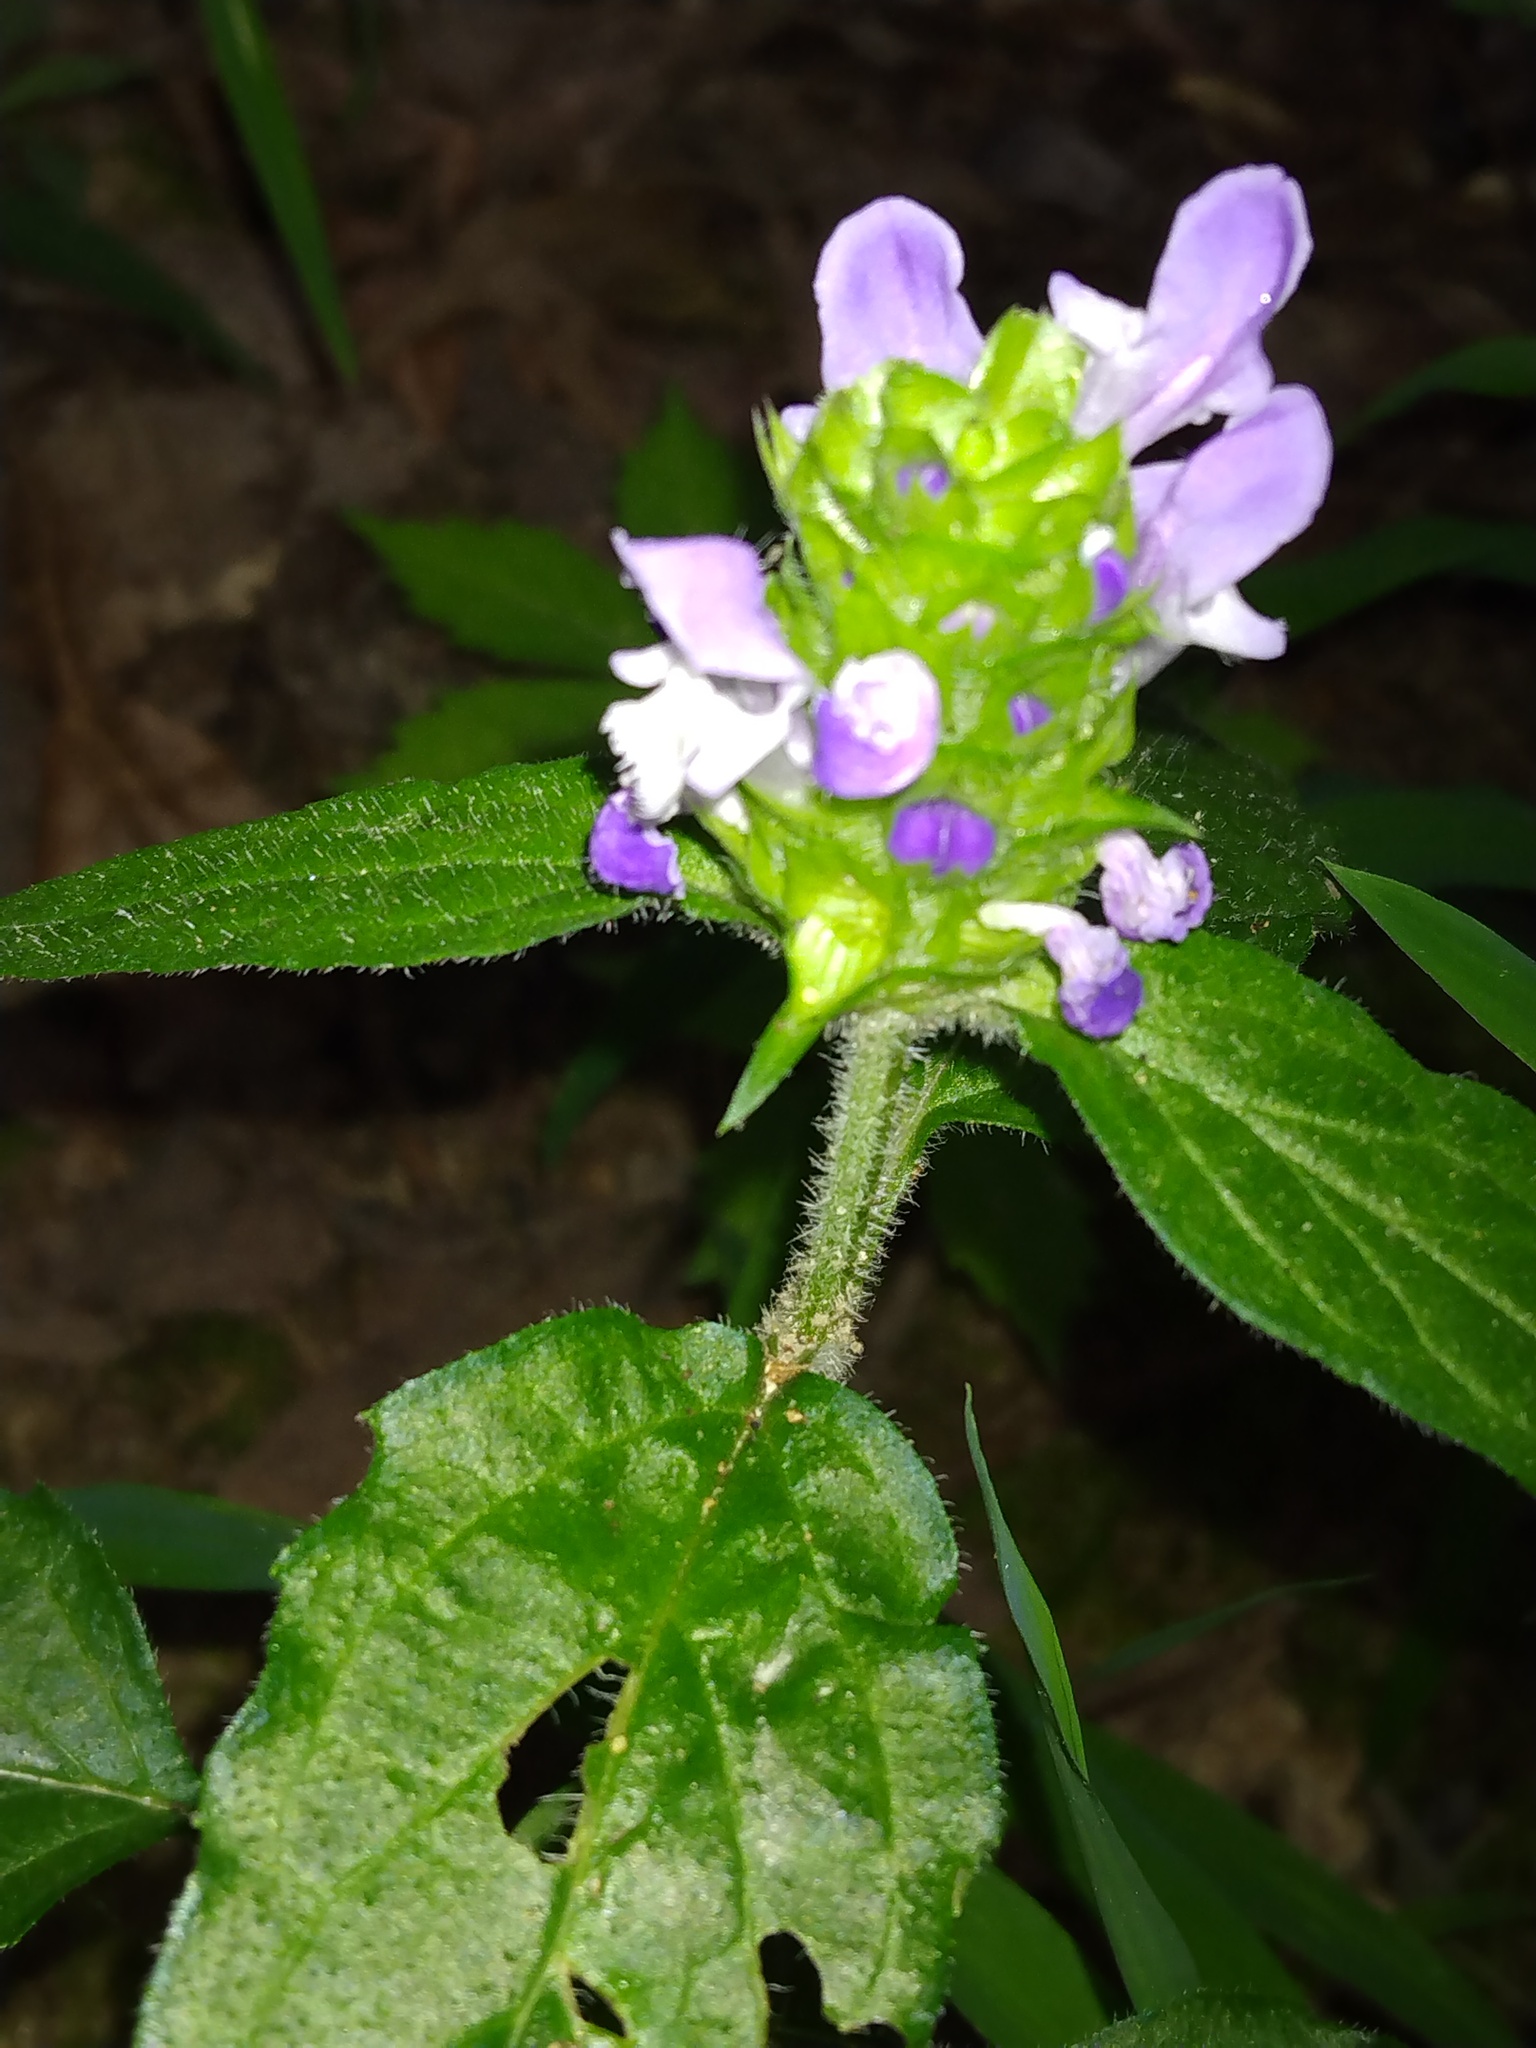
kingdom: Plantae
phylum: Tracheophyta
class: Magnoliopsida
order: Lamiales
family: Lamiaceae
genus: Prunella
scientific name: Prunella vulgaris
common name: Heal-all
